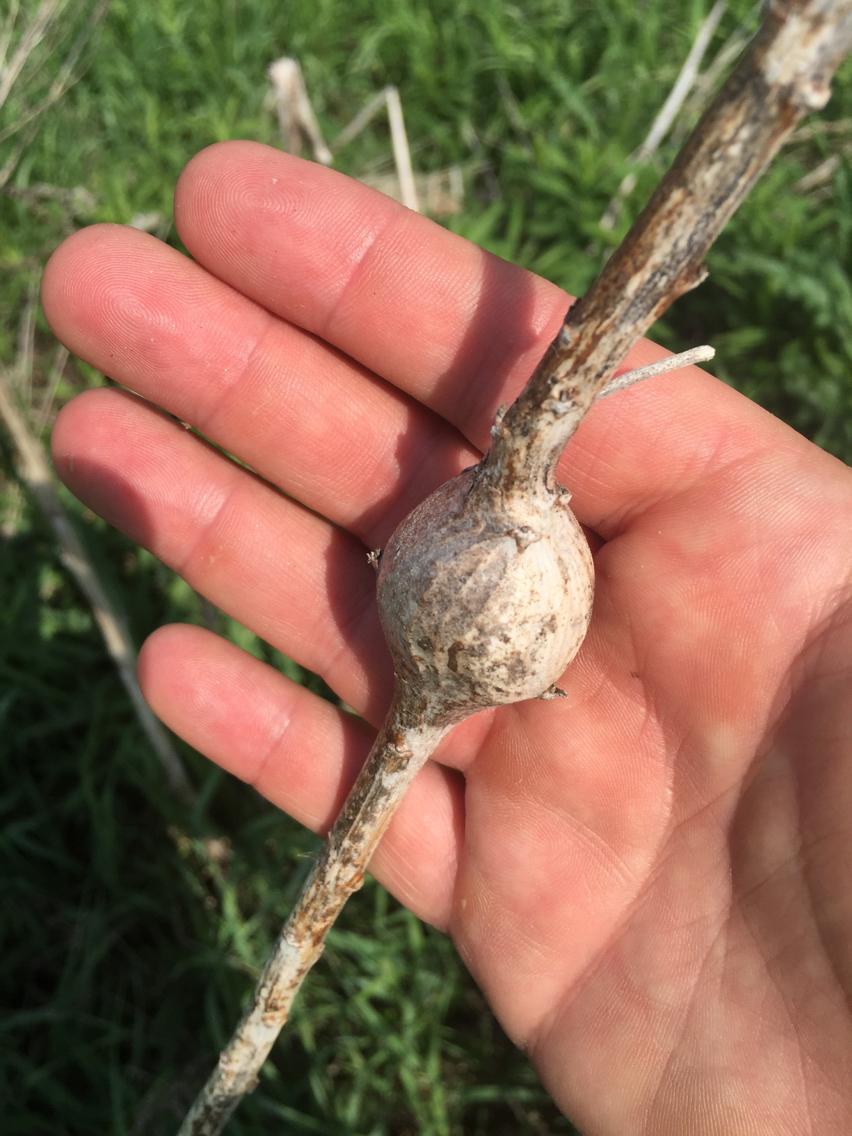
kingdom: Animalia
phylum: Arthropoda
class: Insecta
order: Diptera
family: Tephritidae
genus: Eurosta
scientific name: Eurosta solidaginis
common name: Goldenrod gall fly
